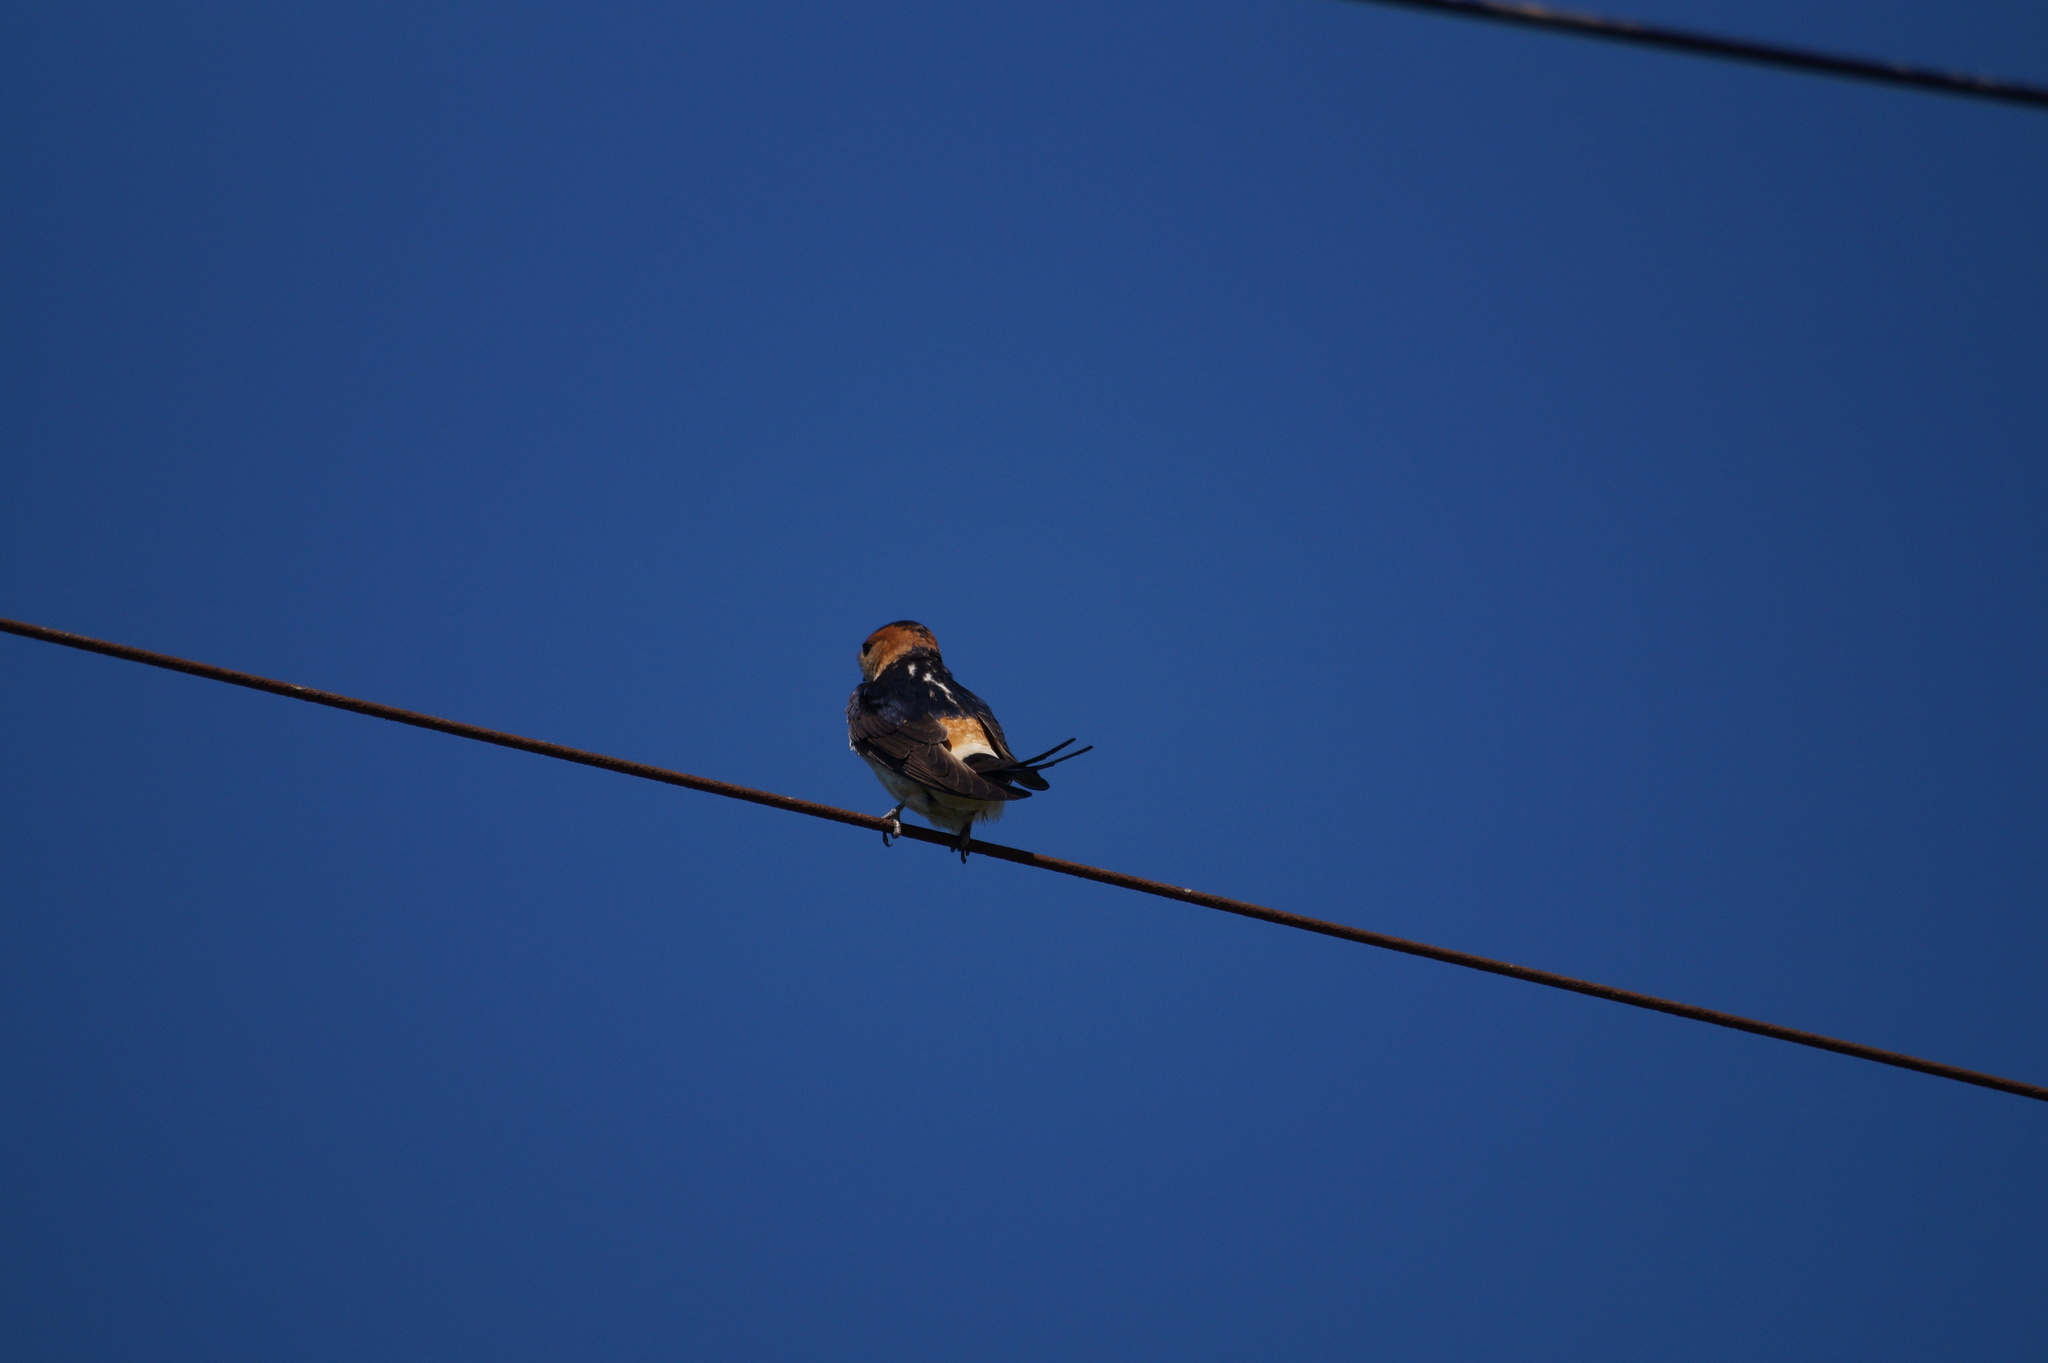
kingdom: Animalia
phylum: Chordata
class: Aves
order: Passeriformes
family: Hirundinidae
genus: Cecropis
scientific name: Cecropis daurica
